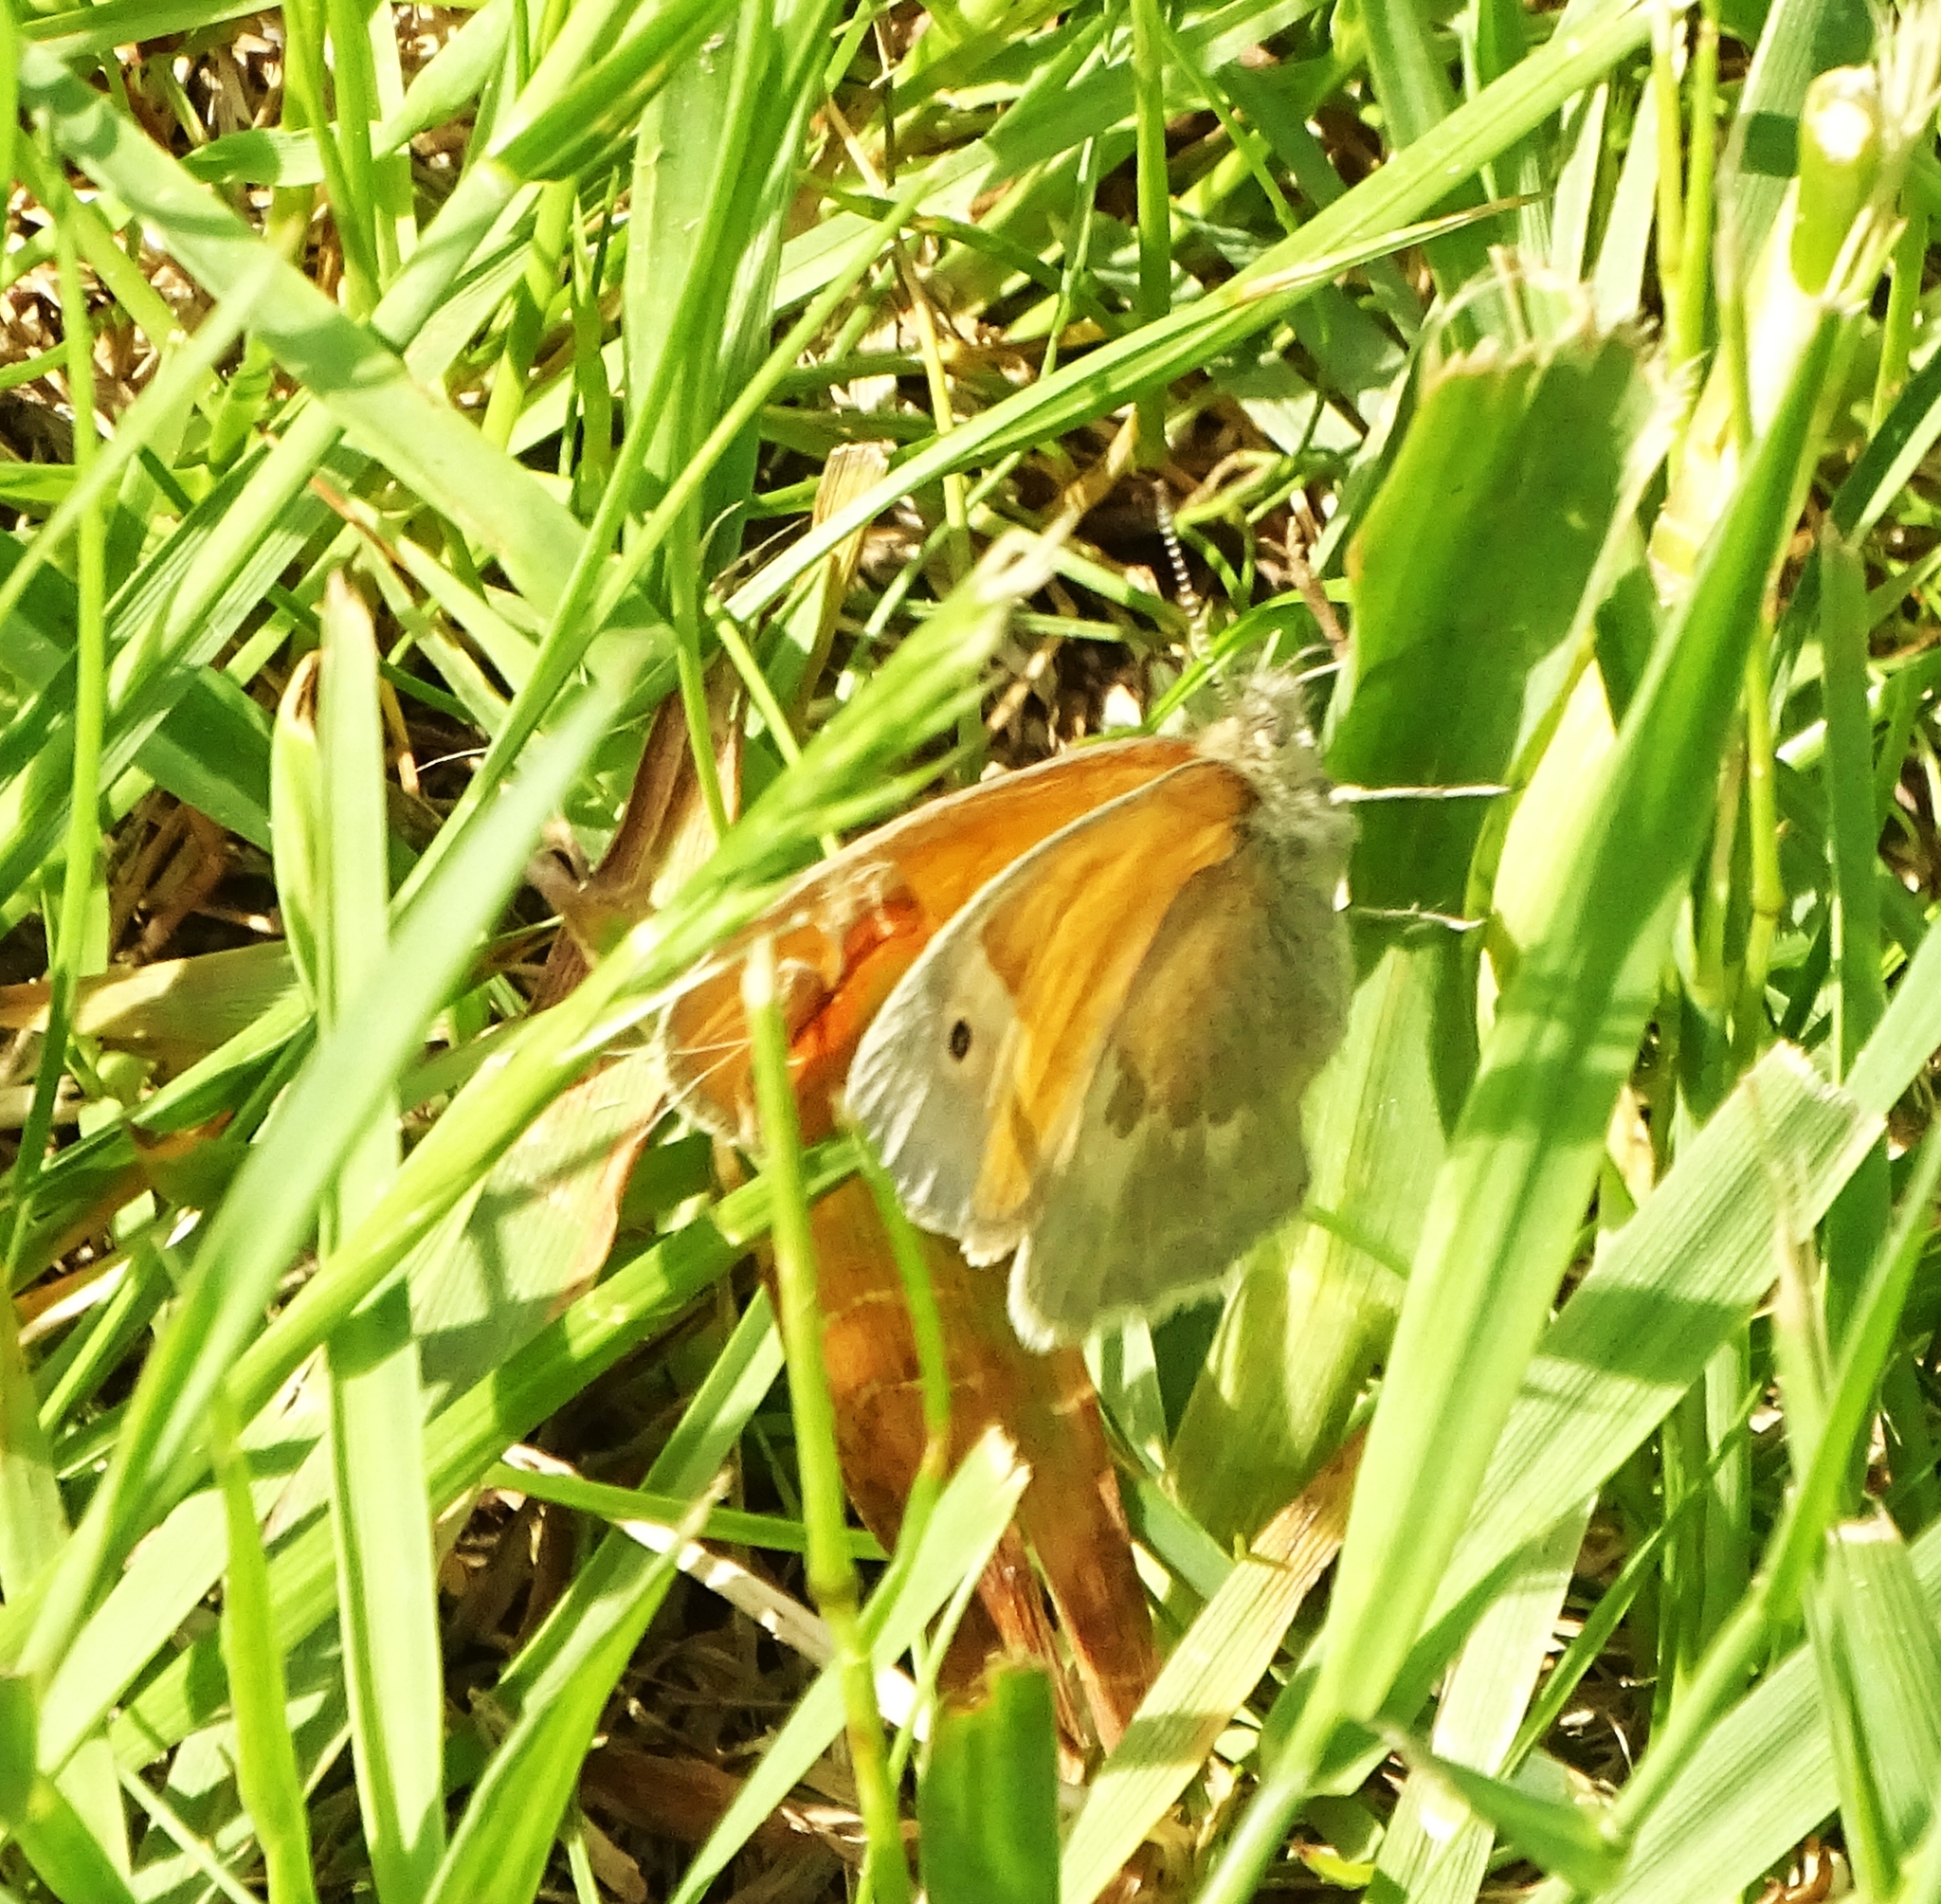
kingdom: Animalia
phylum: Arthropoda
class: Insecta
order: Lepidoptera
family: Nymphalidae
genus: Coenonympha
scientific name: Coenonympha california
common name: Common ringlet
